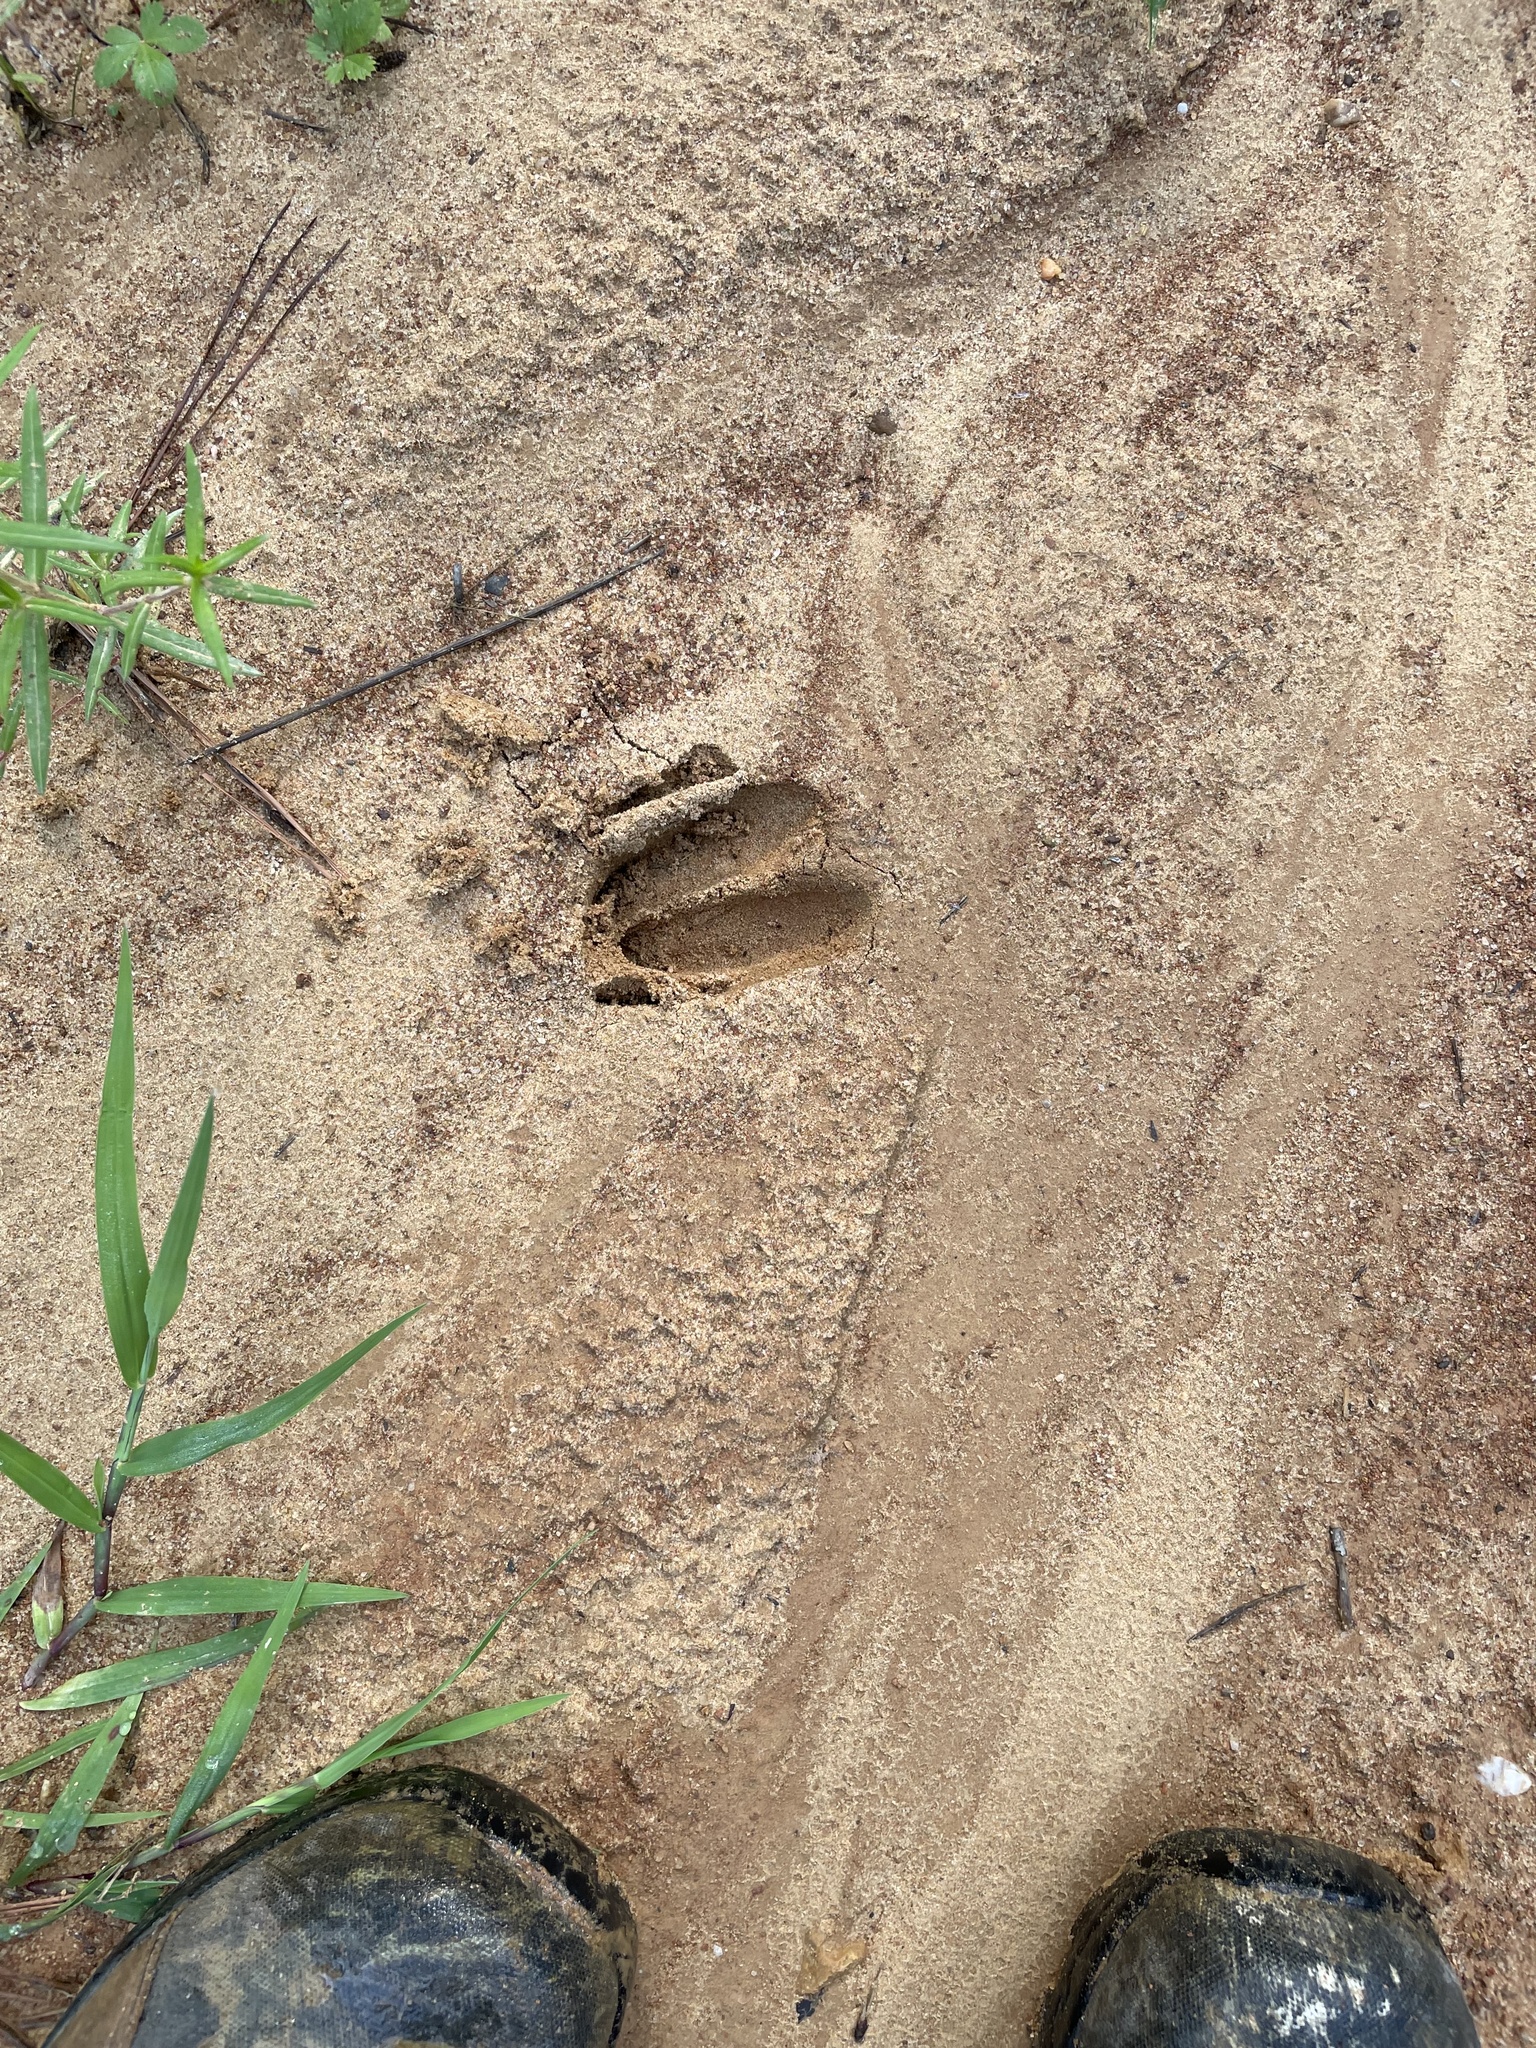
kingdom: Animalia
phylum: Chordata
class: Mammalia
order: Artiodactyla
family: Cervidae
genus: Odocoileus
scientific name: Odocoileus virginianus
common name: White-tailed deer
